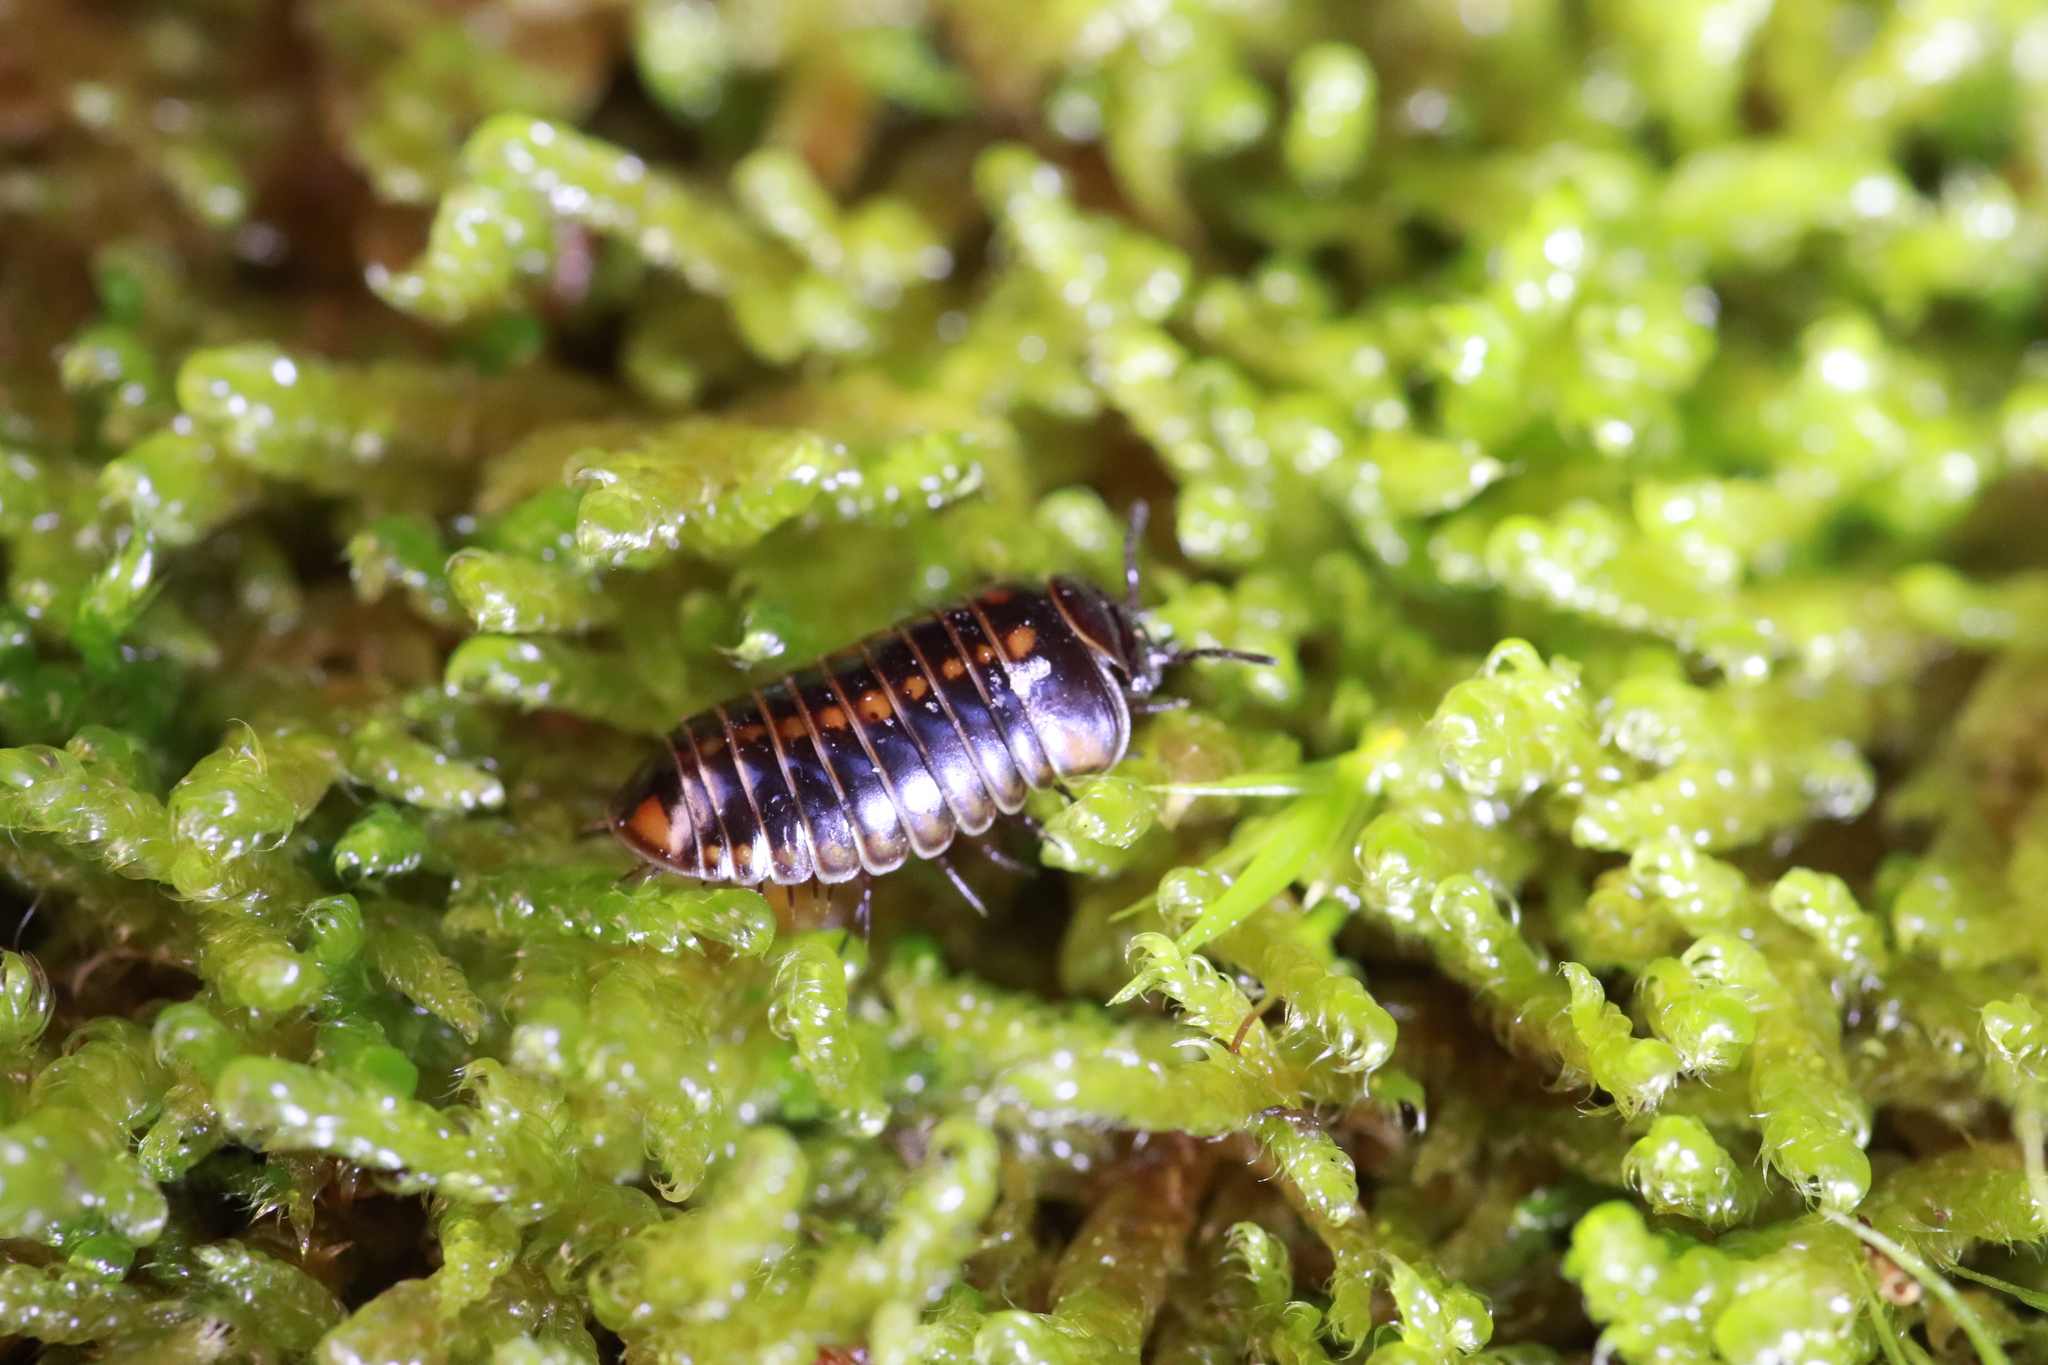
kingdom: Animalia
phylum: Arthropoda
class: Diplopoda
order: Glomerida
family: Glomeridae
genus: Glomeris
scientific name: Glomeris helvetica
